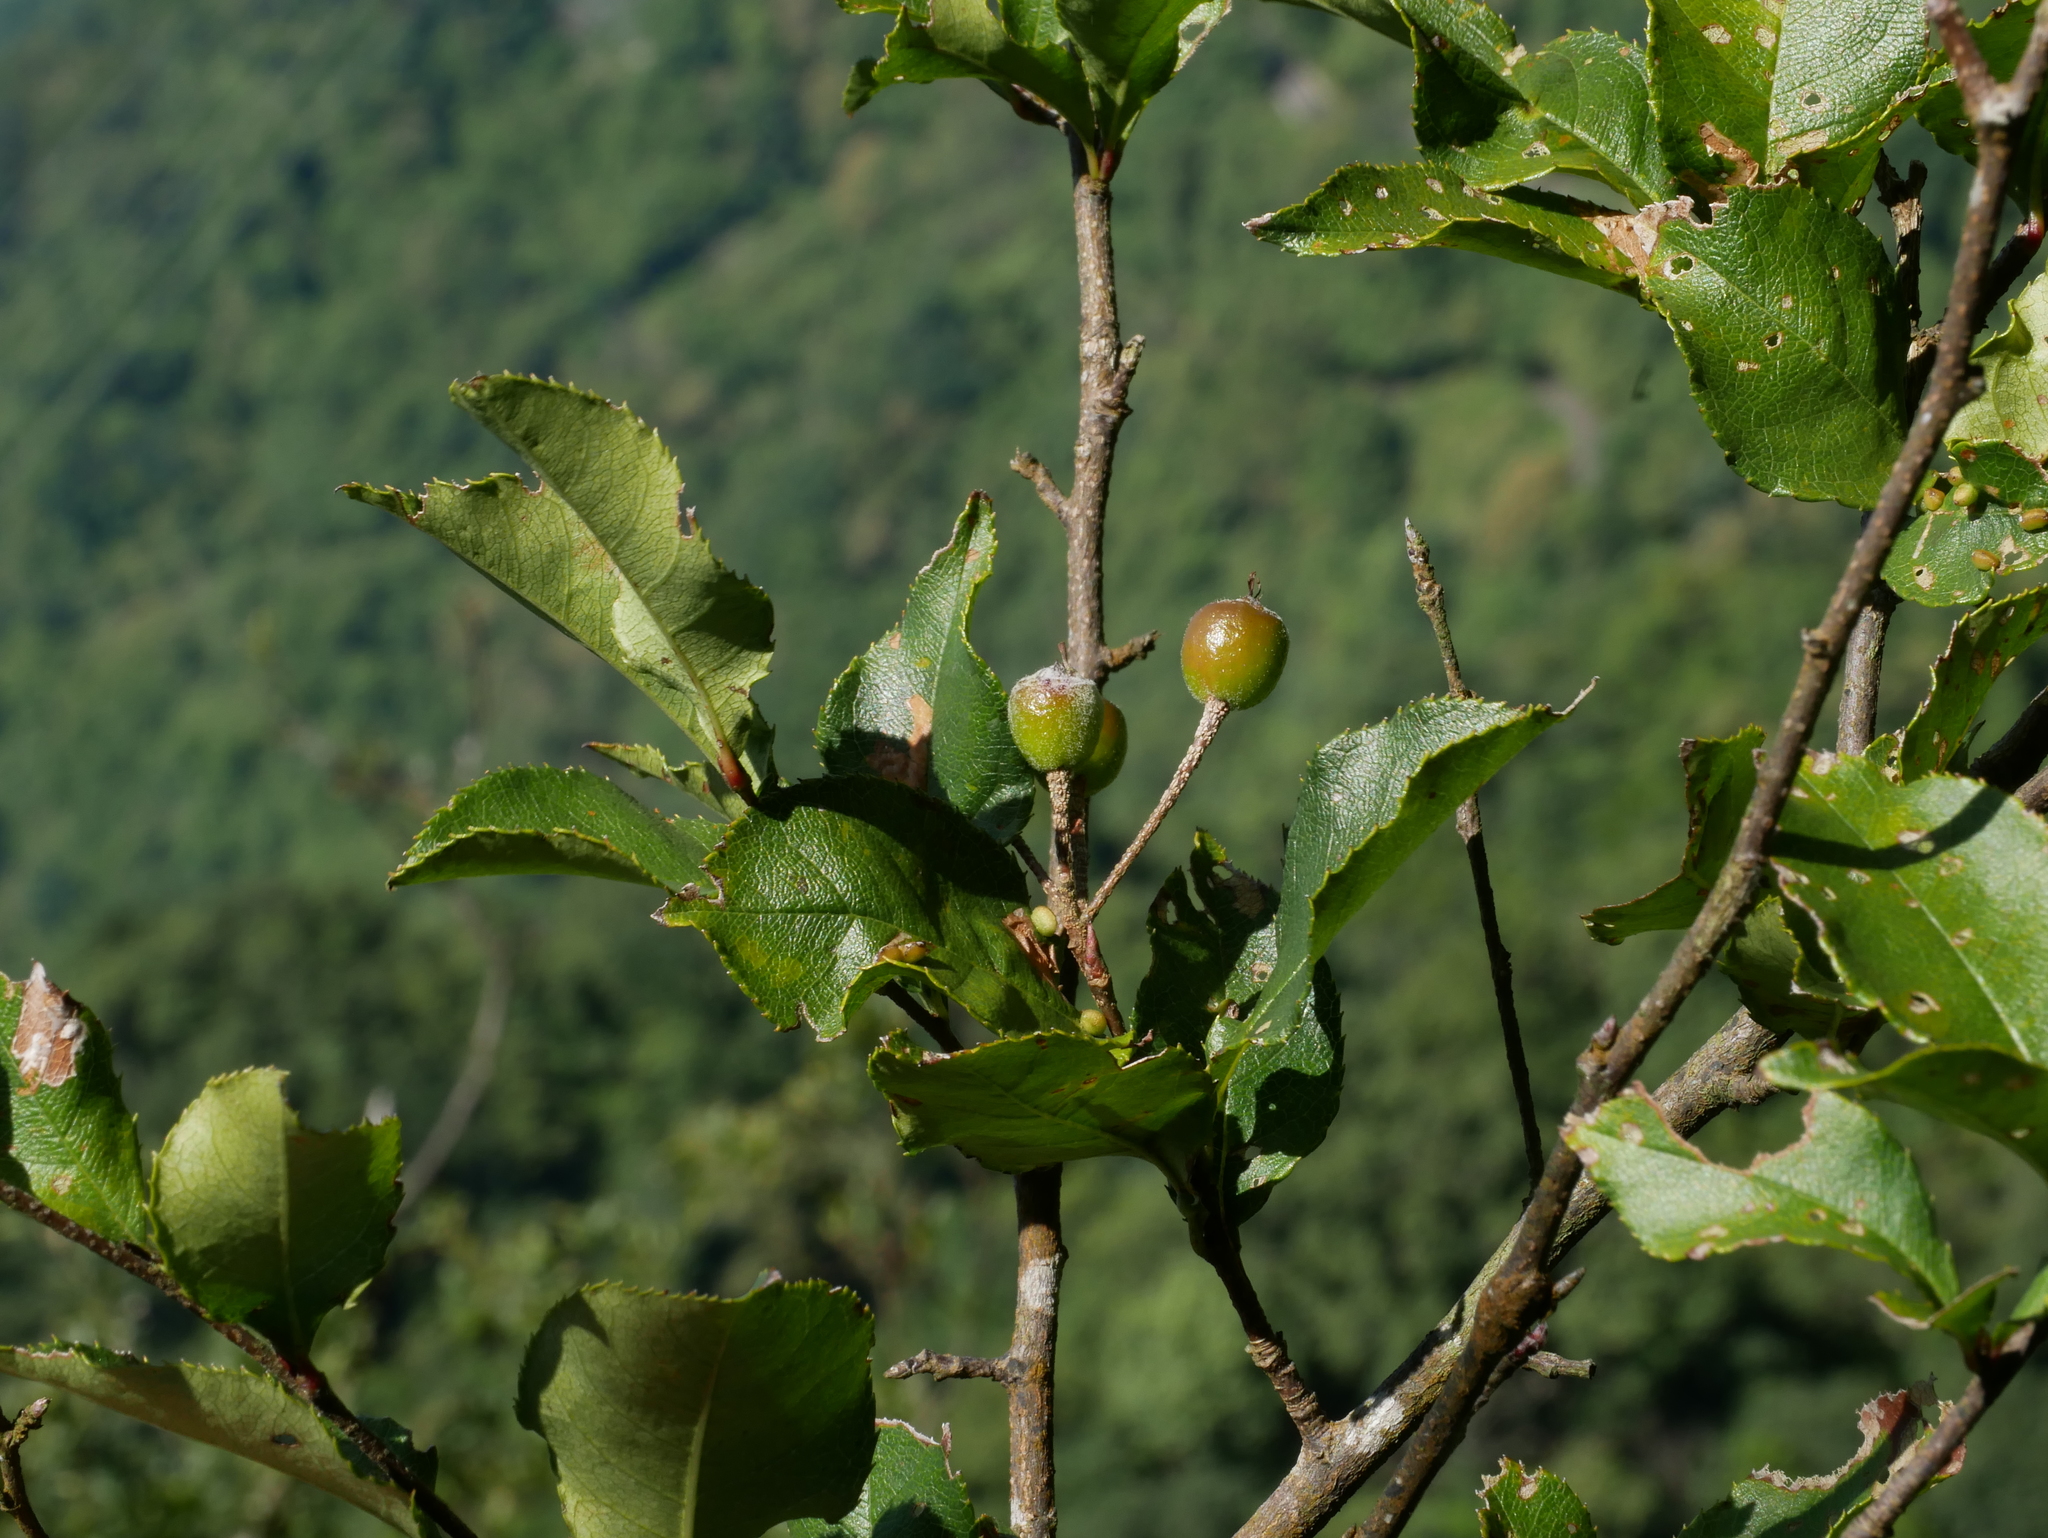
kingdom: Plantae
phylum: Tracheophyta
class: Magnoliopsida
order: Rosales
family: Rosaceae
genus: Pourthiaea
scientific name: Pourthiaea villosa
